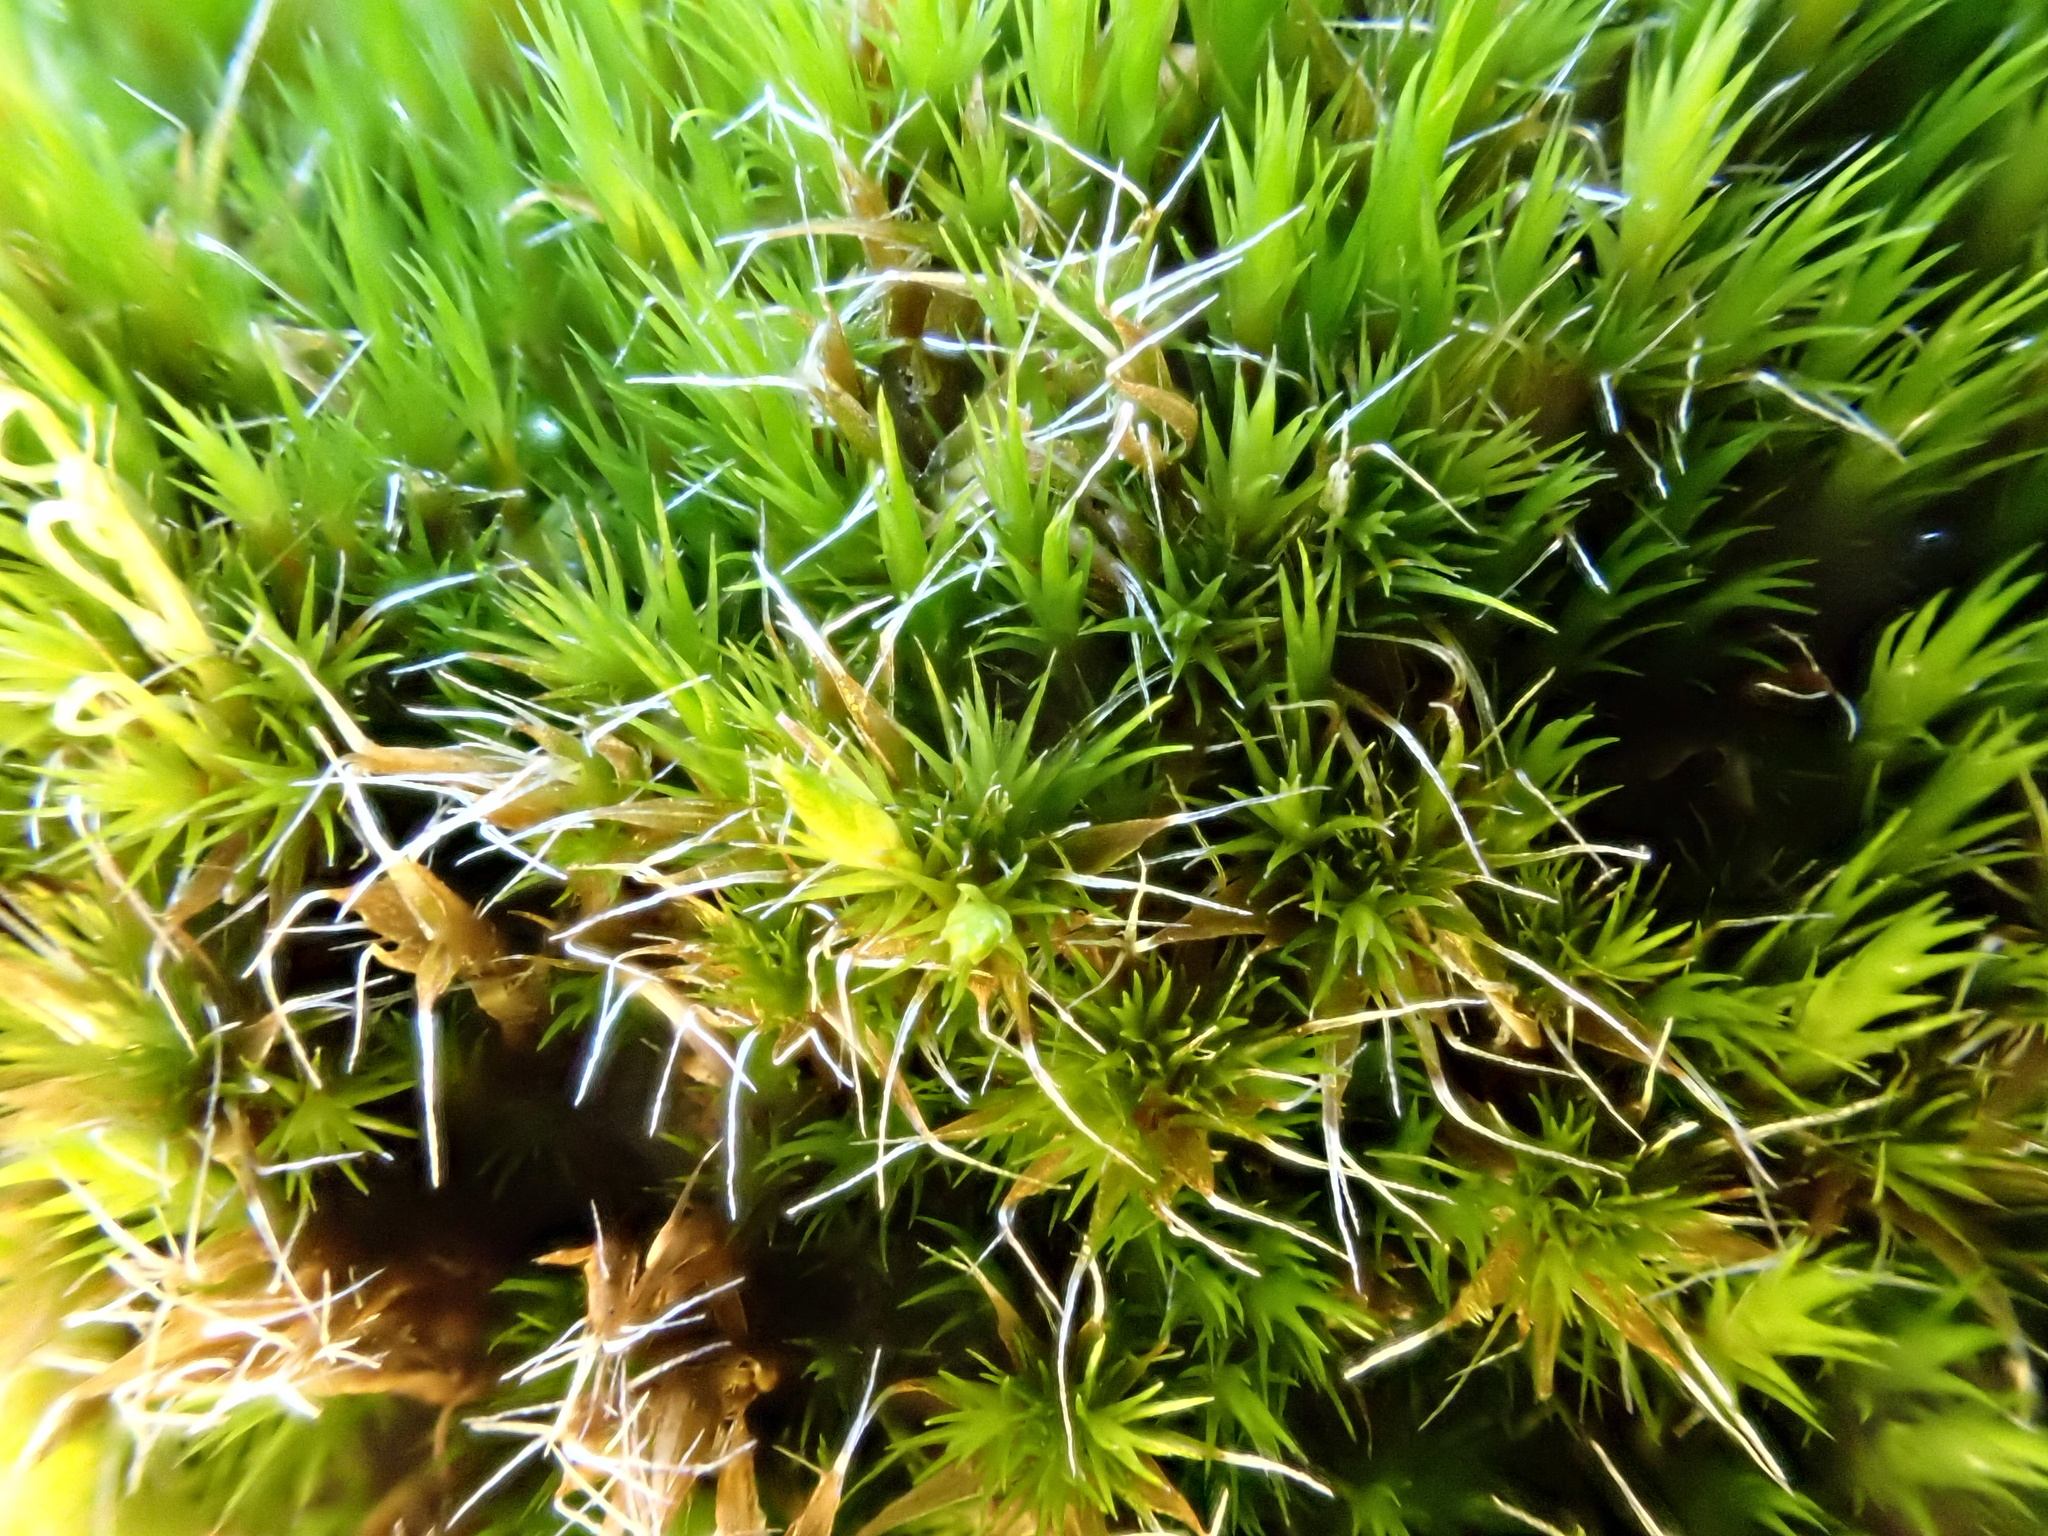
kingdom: Plantae
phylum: Bryophyta
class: Bryopsida
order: Dicranales
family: Leucobryaceae
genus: Campylopus
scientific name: Campylopus introflexus
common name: Heath star moss
